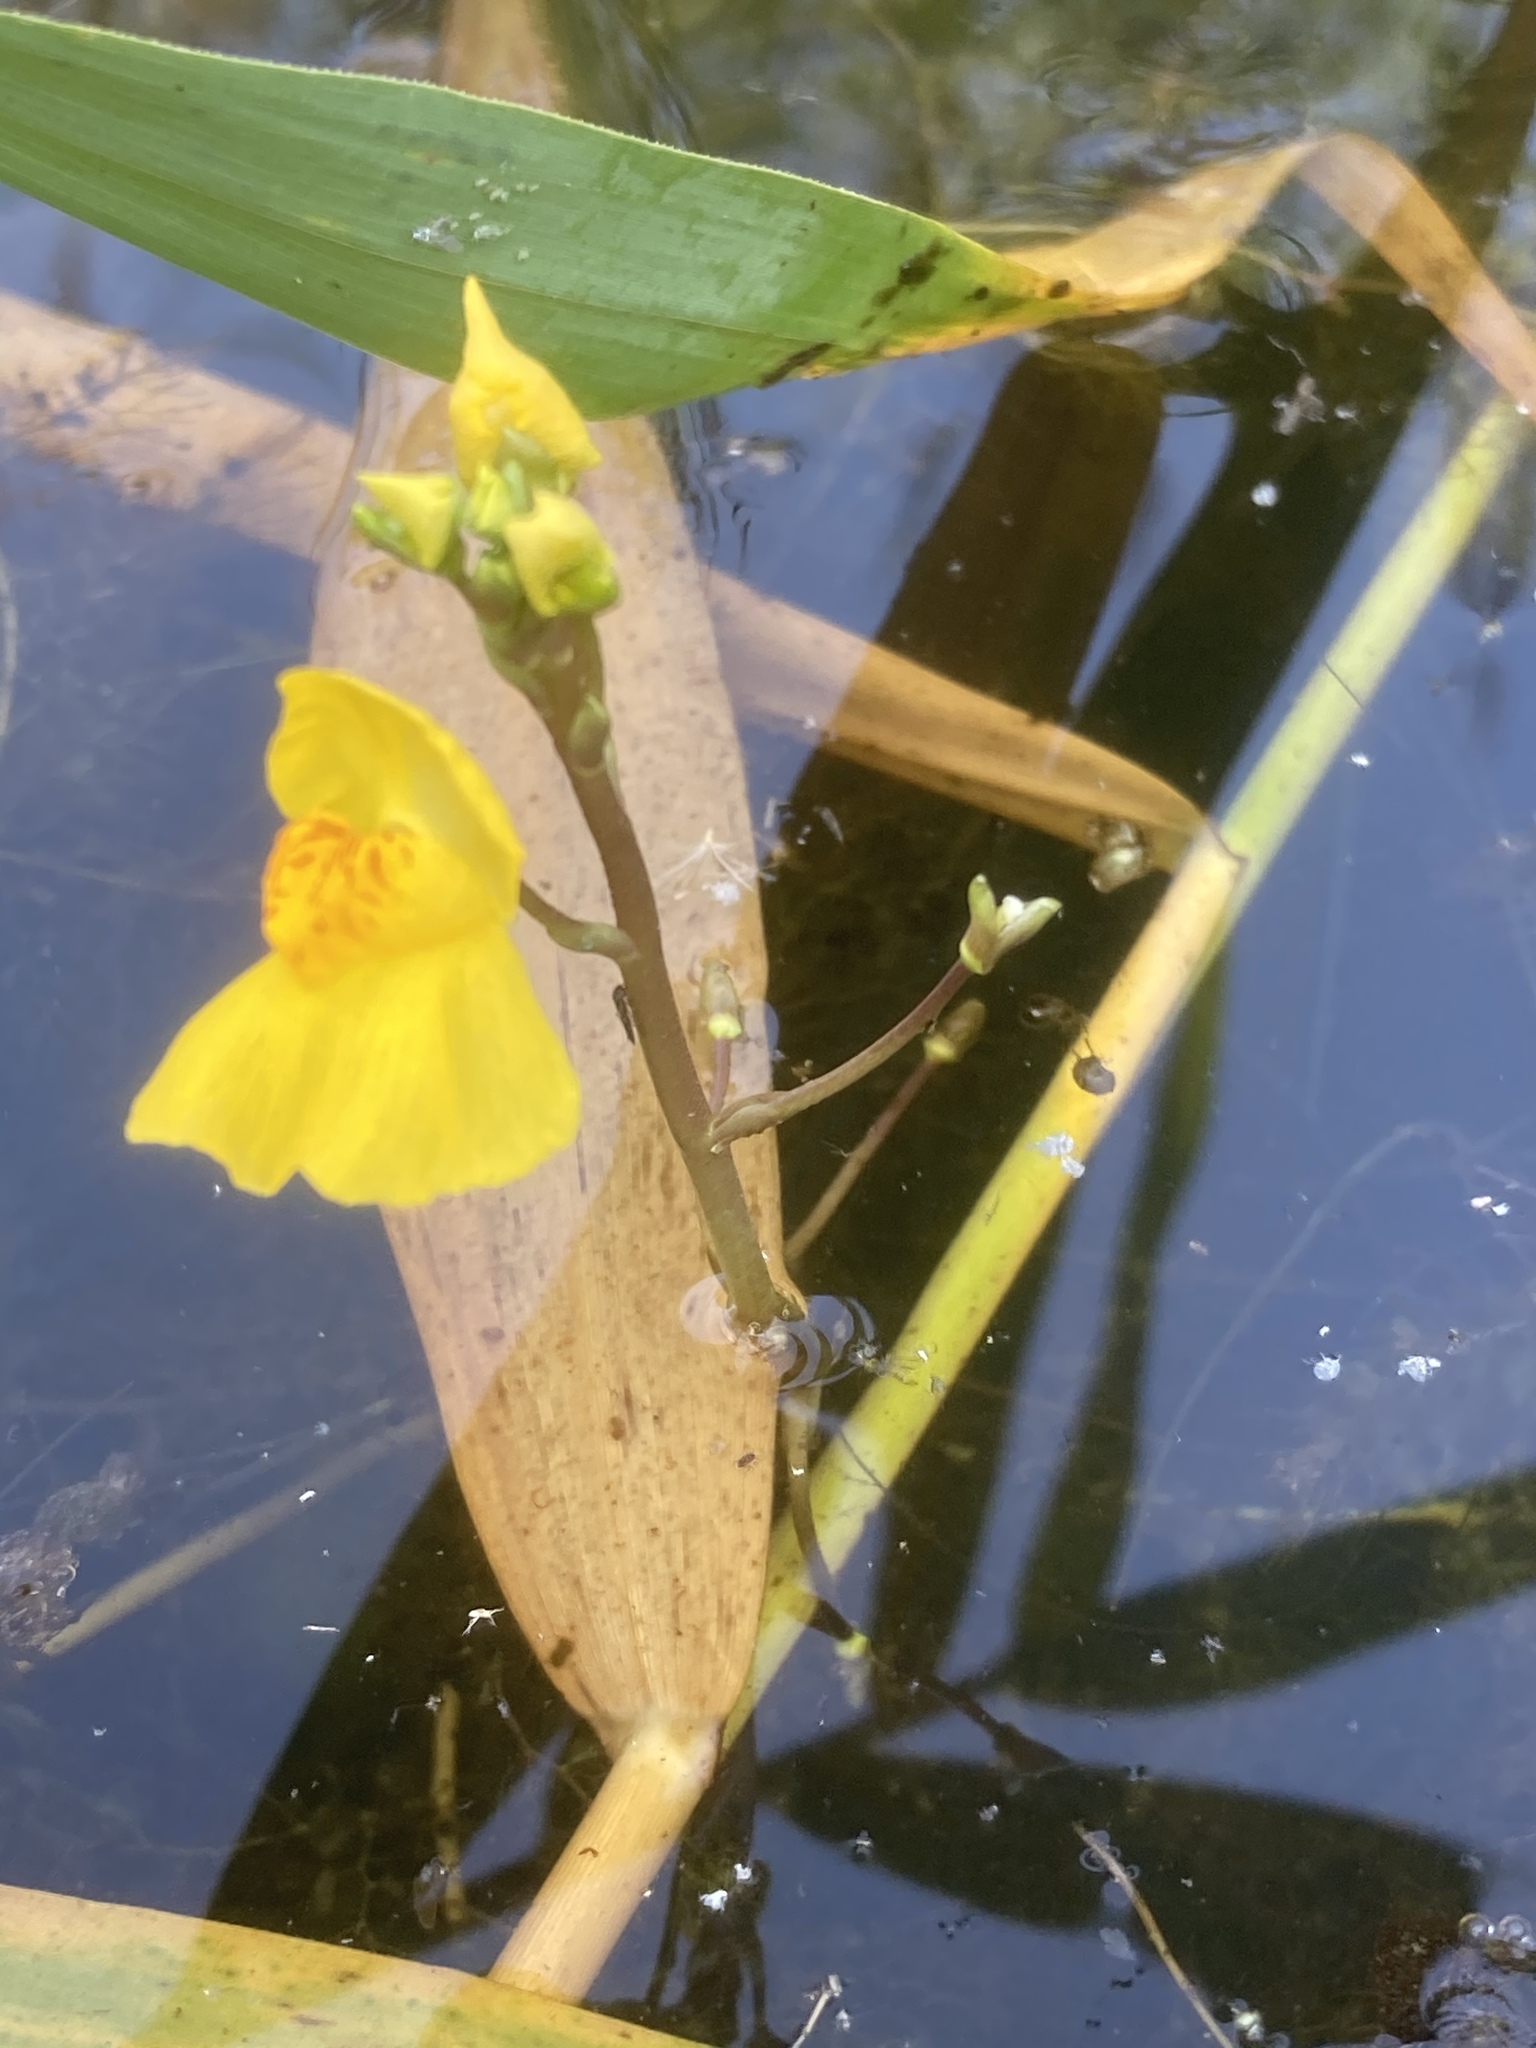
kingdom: Plantae
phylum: Tracheophyta
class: Magnoliopsida
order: Lamiales
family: Lentibulariaceae
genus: Utricularia
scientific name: Utricularia australis
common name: Bladderwort
